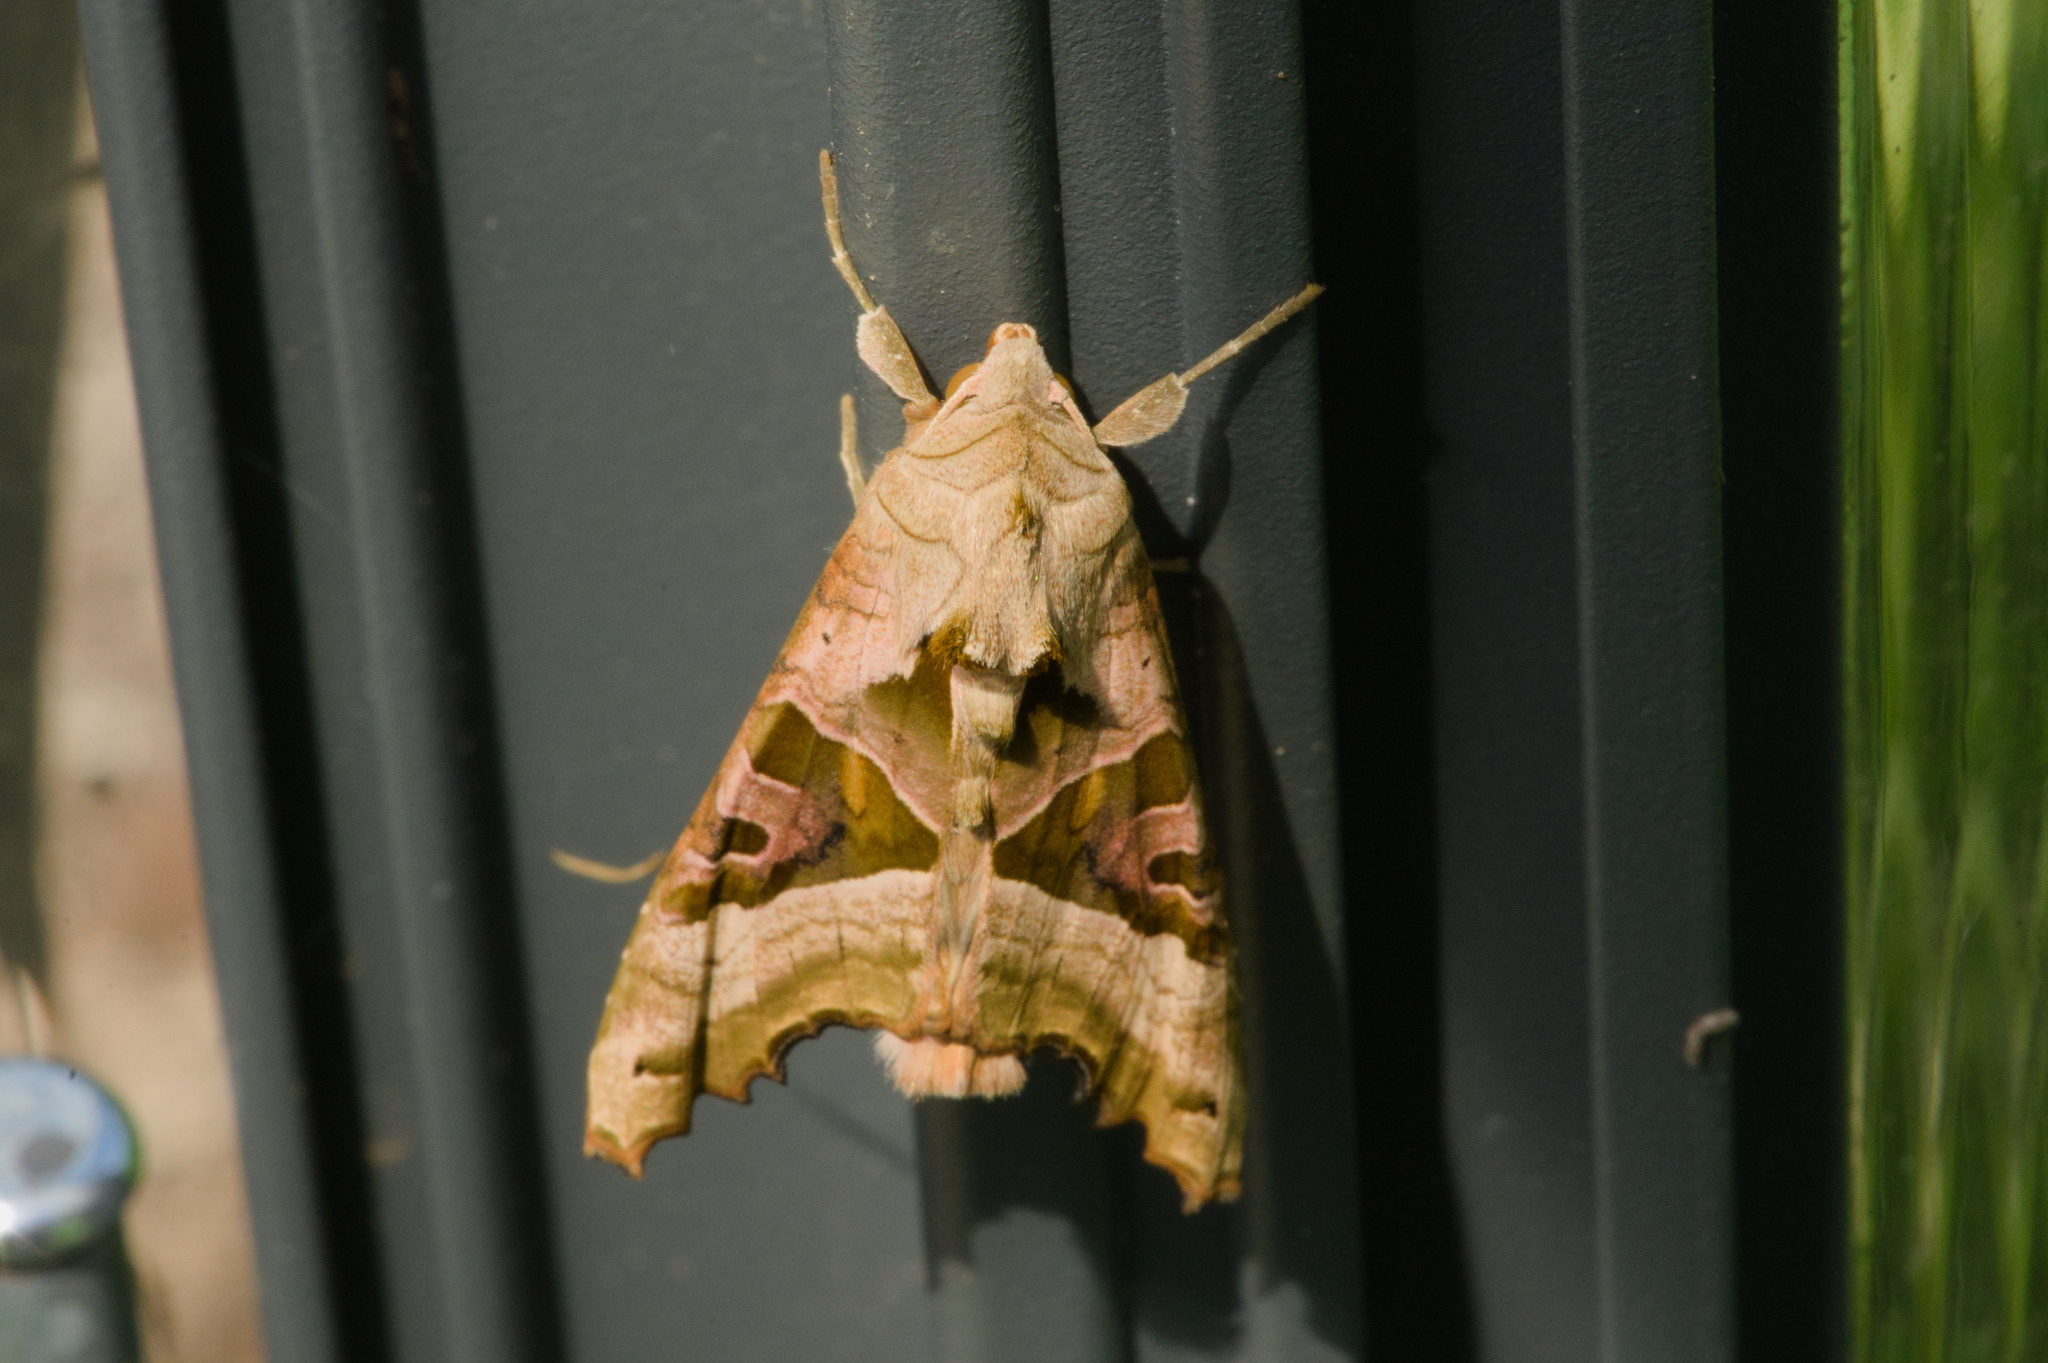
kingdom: Animalia
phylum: Arthropoda
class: Insecta
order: Lepidoptera
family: Noctuidae
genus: Phlogophora
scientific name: Phlogophora meticulosa
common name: Angle shades
